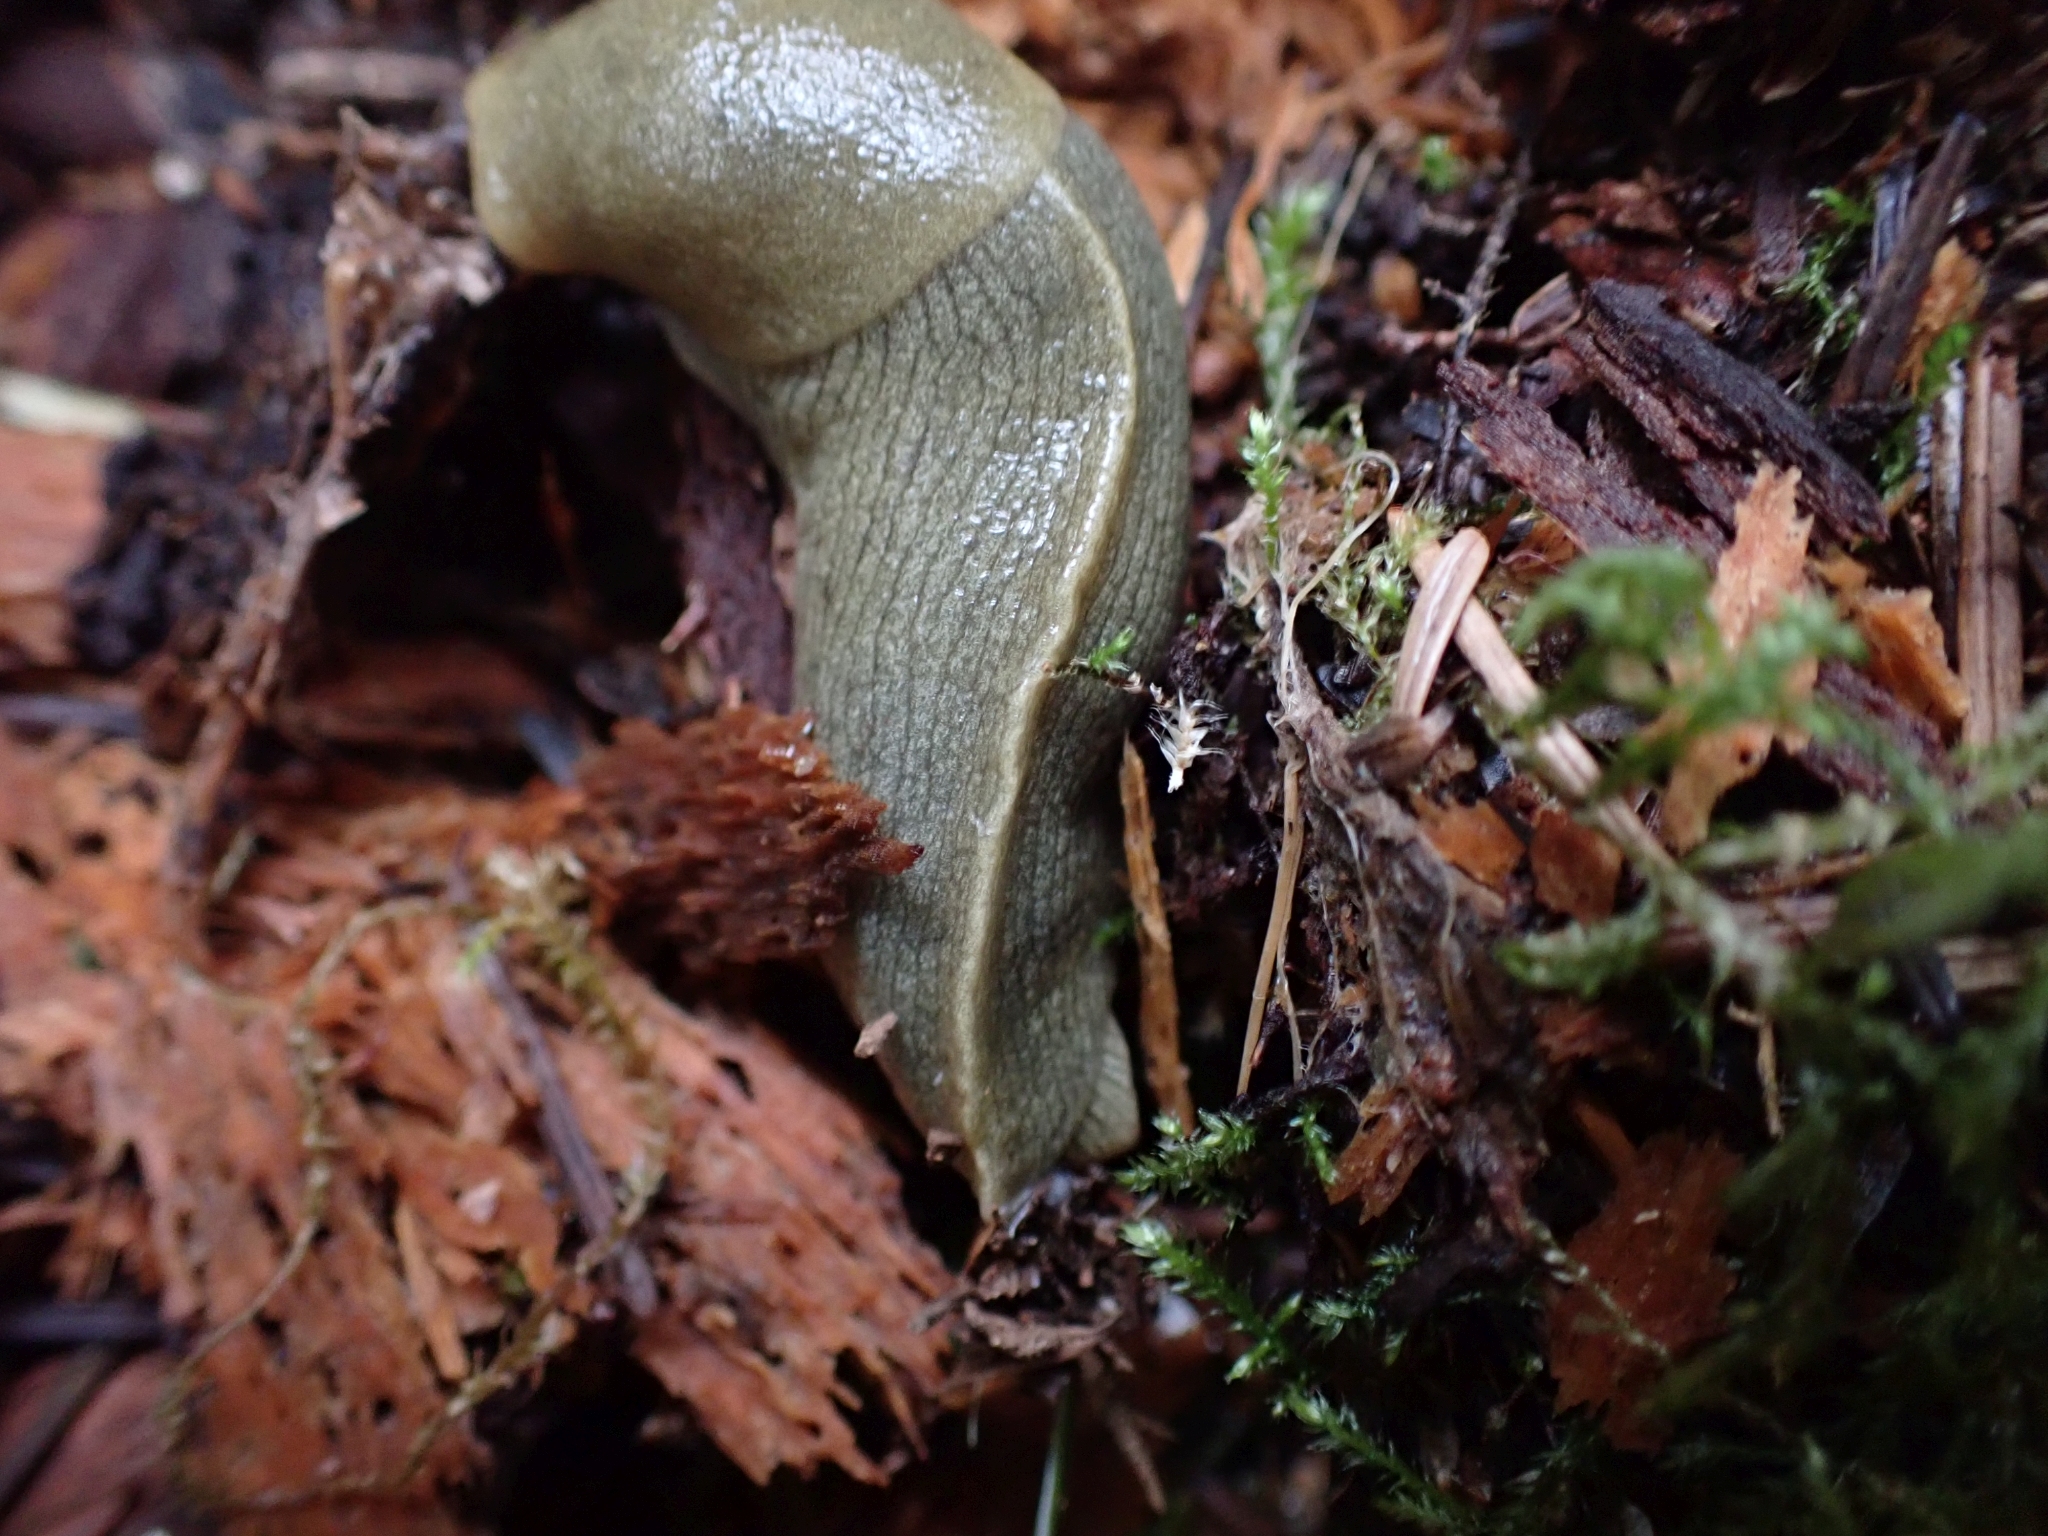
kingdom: Animalia
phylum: Mollusca
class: Gastropoda
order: Stylommatophora
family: Ariolimacidae
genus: Ariolimax
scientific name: Ariolimax columbianus
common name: Pacific banana slug
